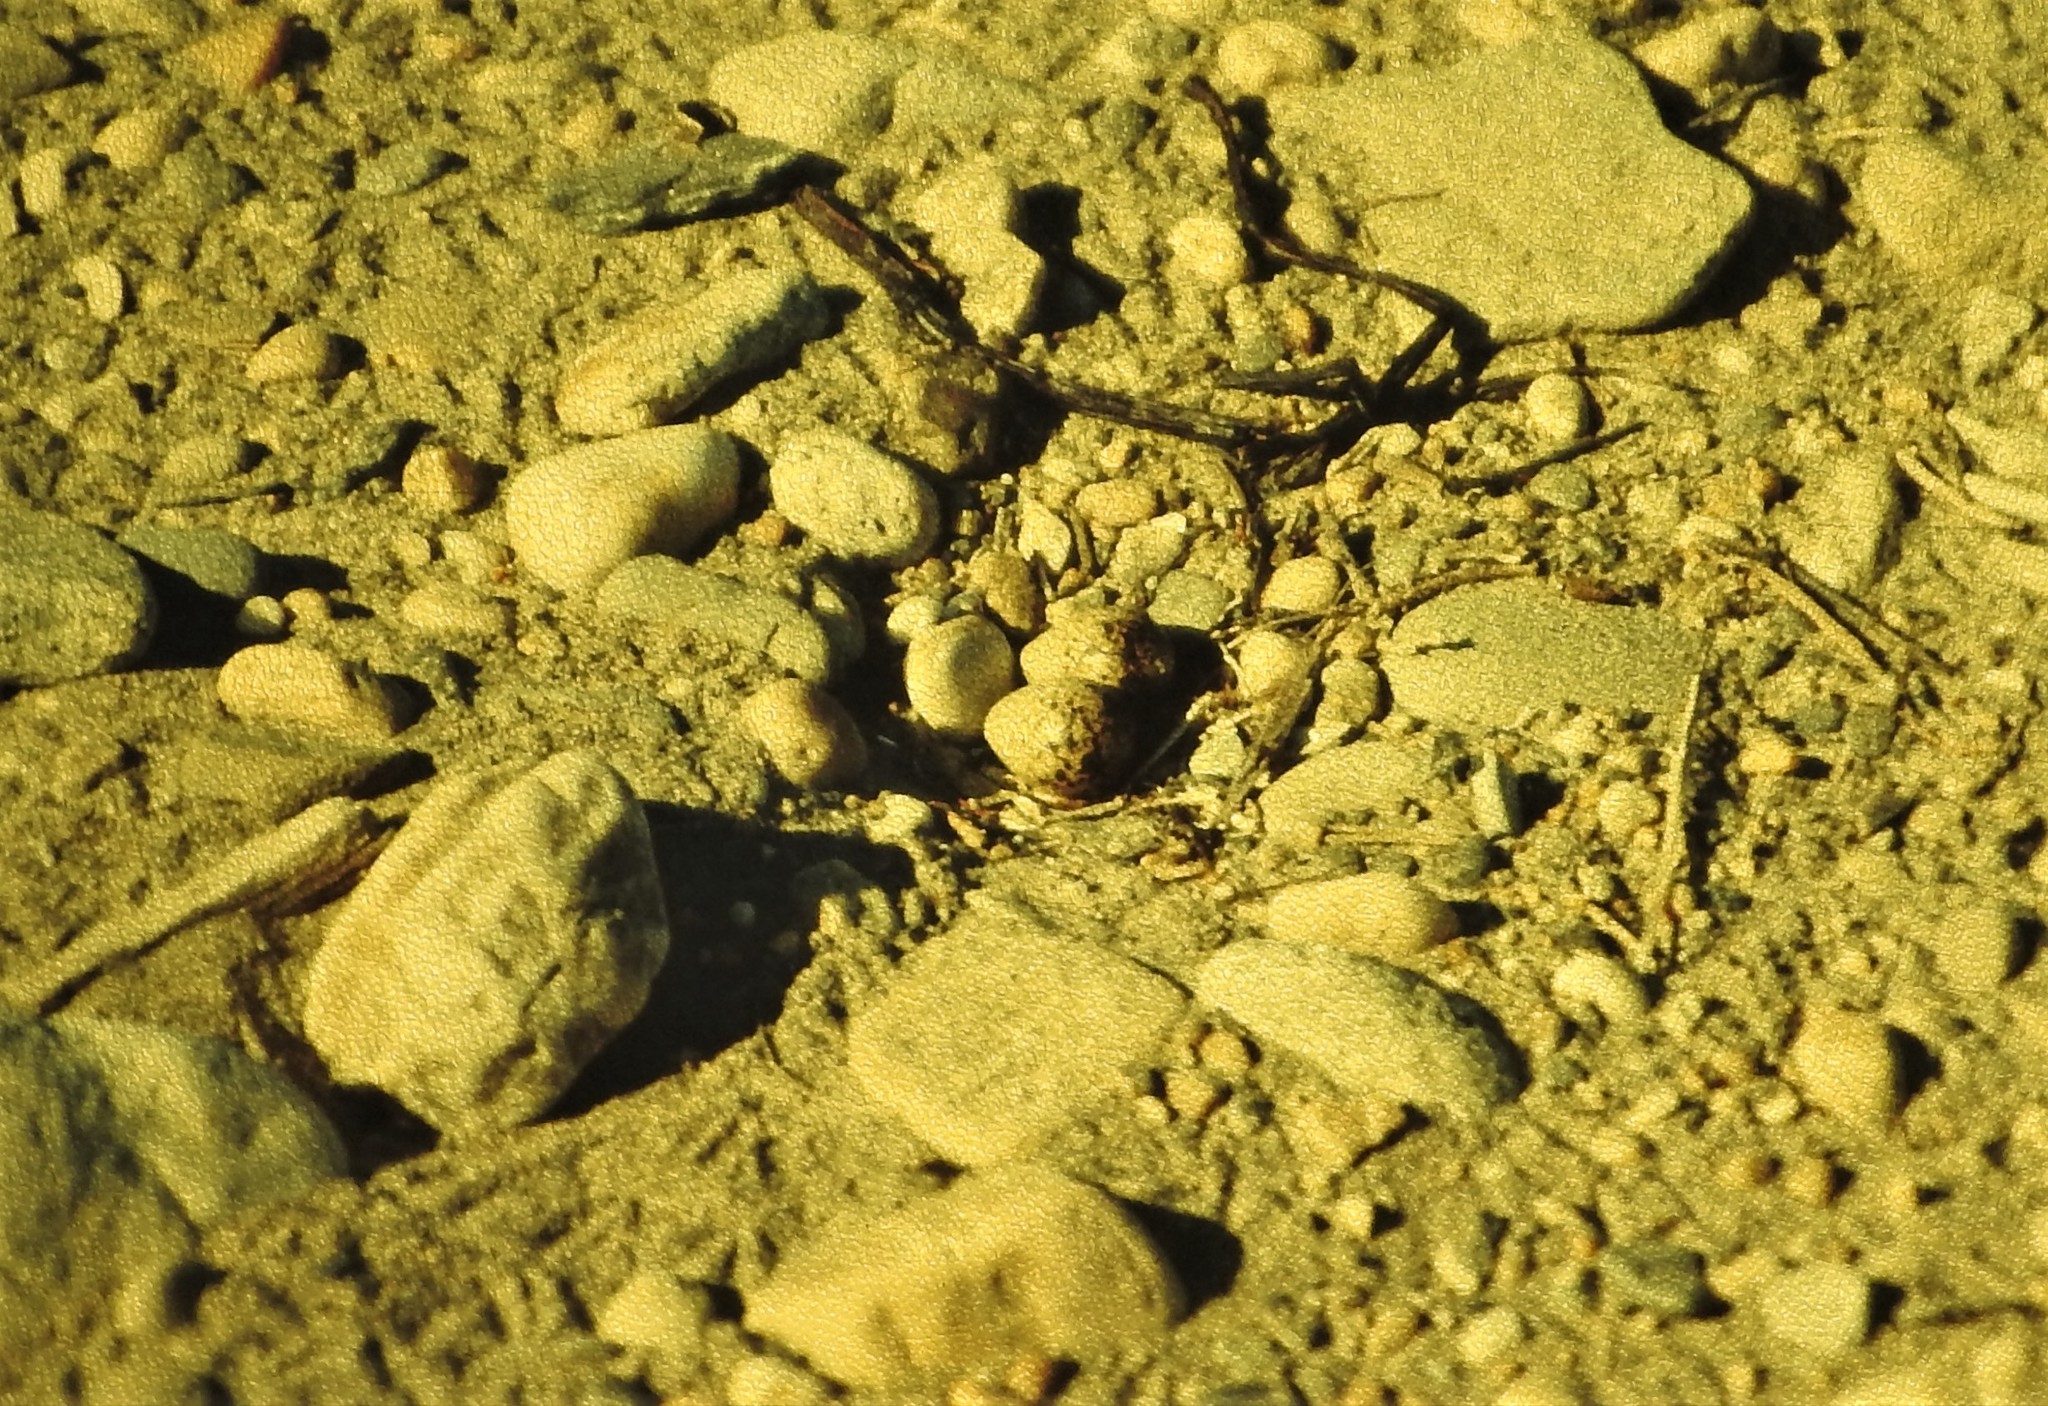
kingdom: Animalia
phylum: Chordata
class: Aves
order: Charadriiformes
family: Charadriidae
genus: Charadrius
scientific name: Charadrius semipalmatus
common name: Semipalmated plover
